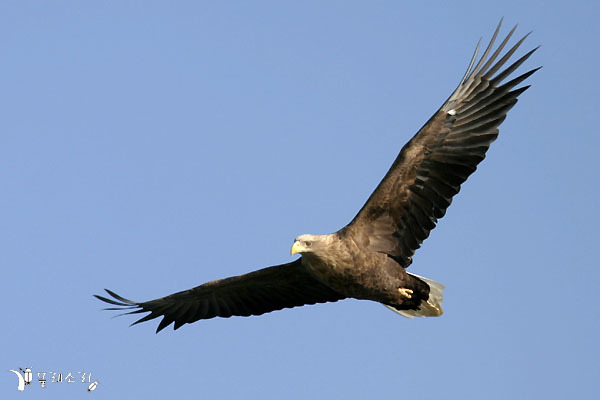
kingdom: Animalia
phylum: Chordata
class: Aves
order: Accipitriformes
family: Accipitridae
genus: Haliaeetus
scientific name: Haliaeetus albicilla
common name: White-tailed eagle
